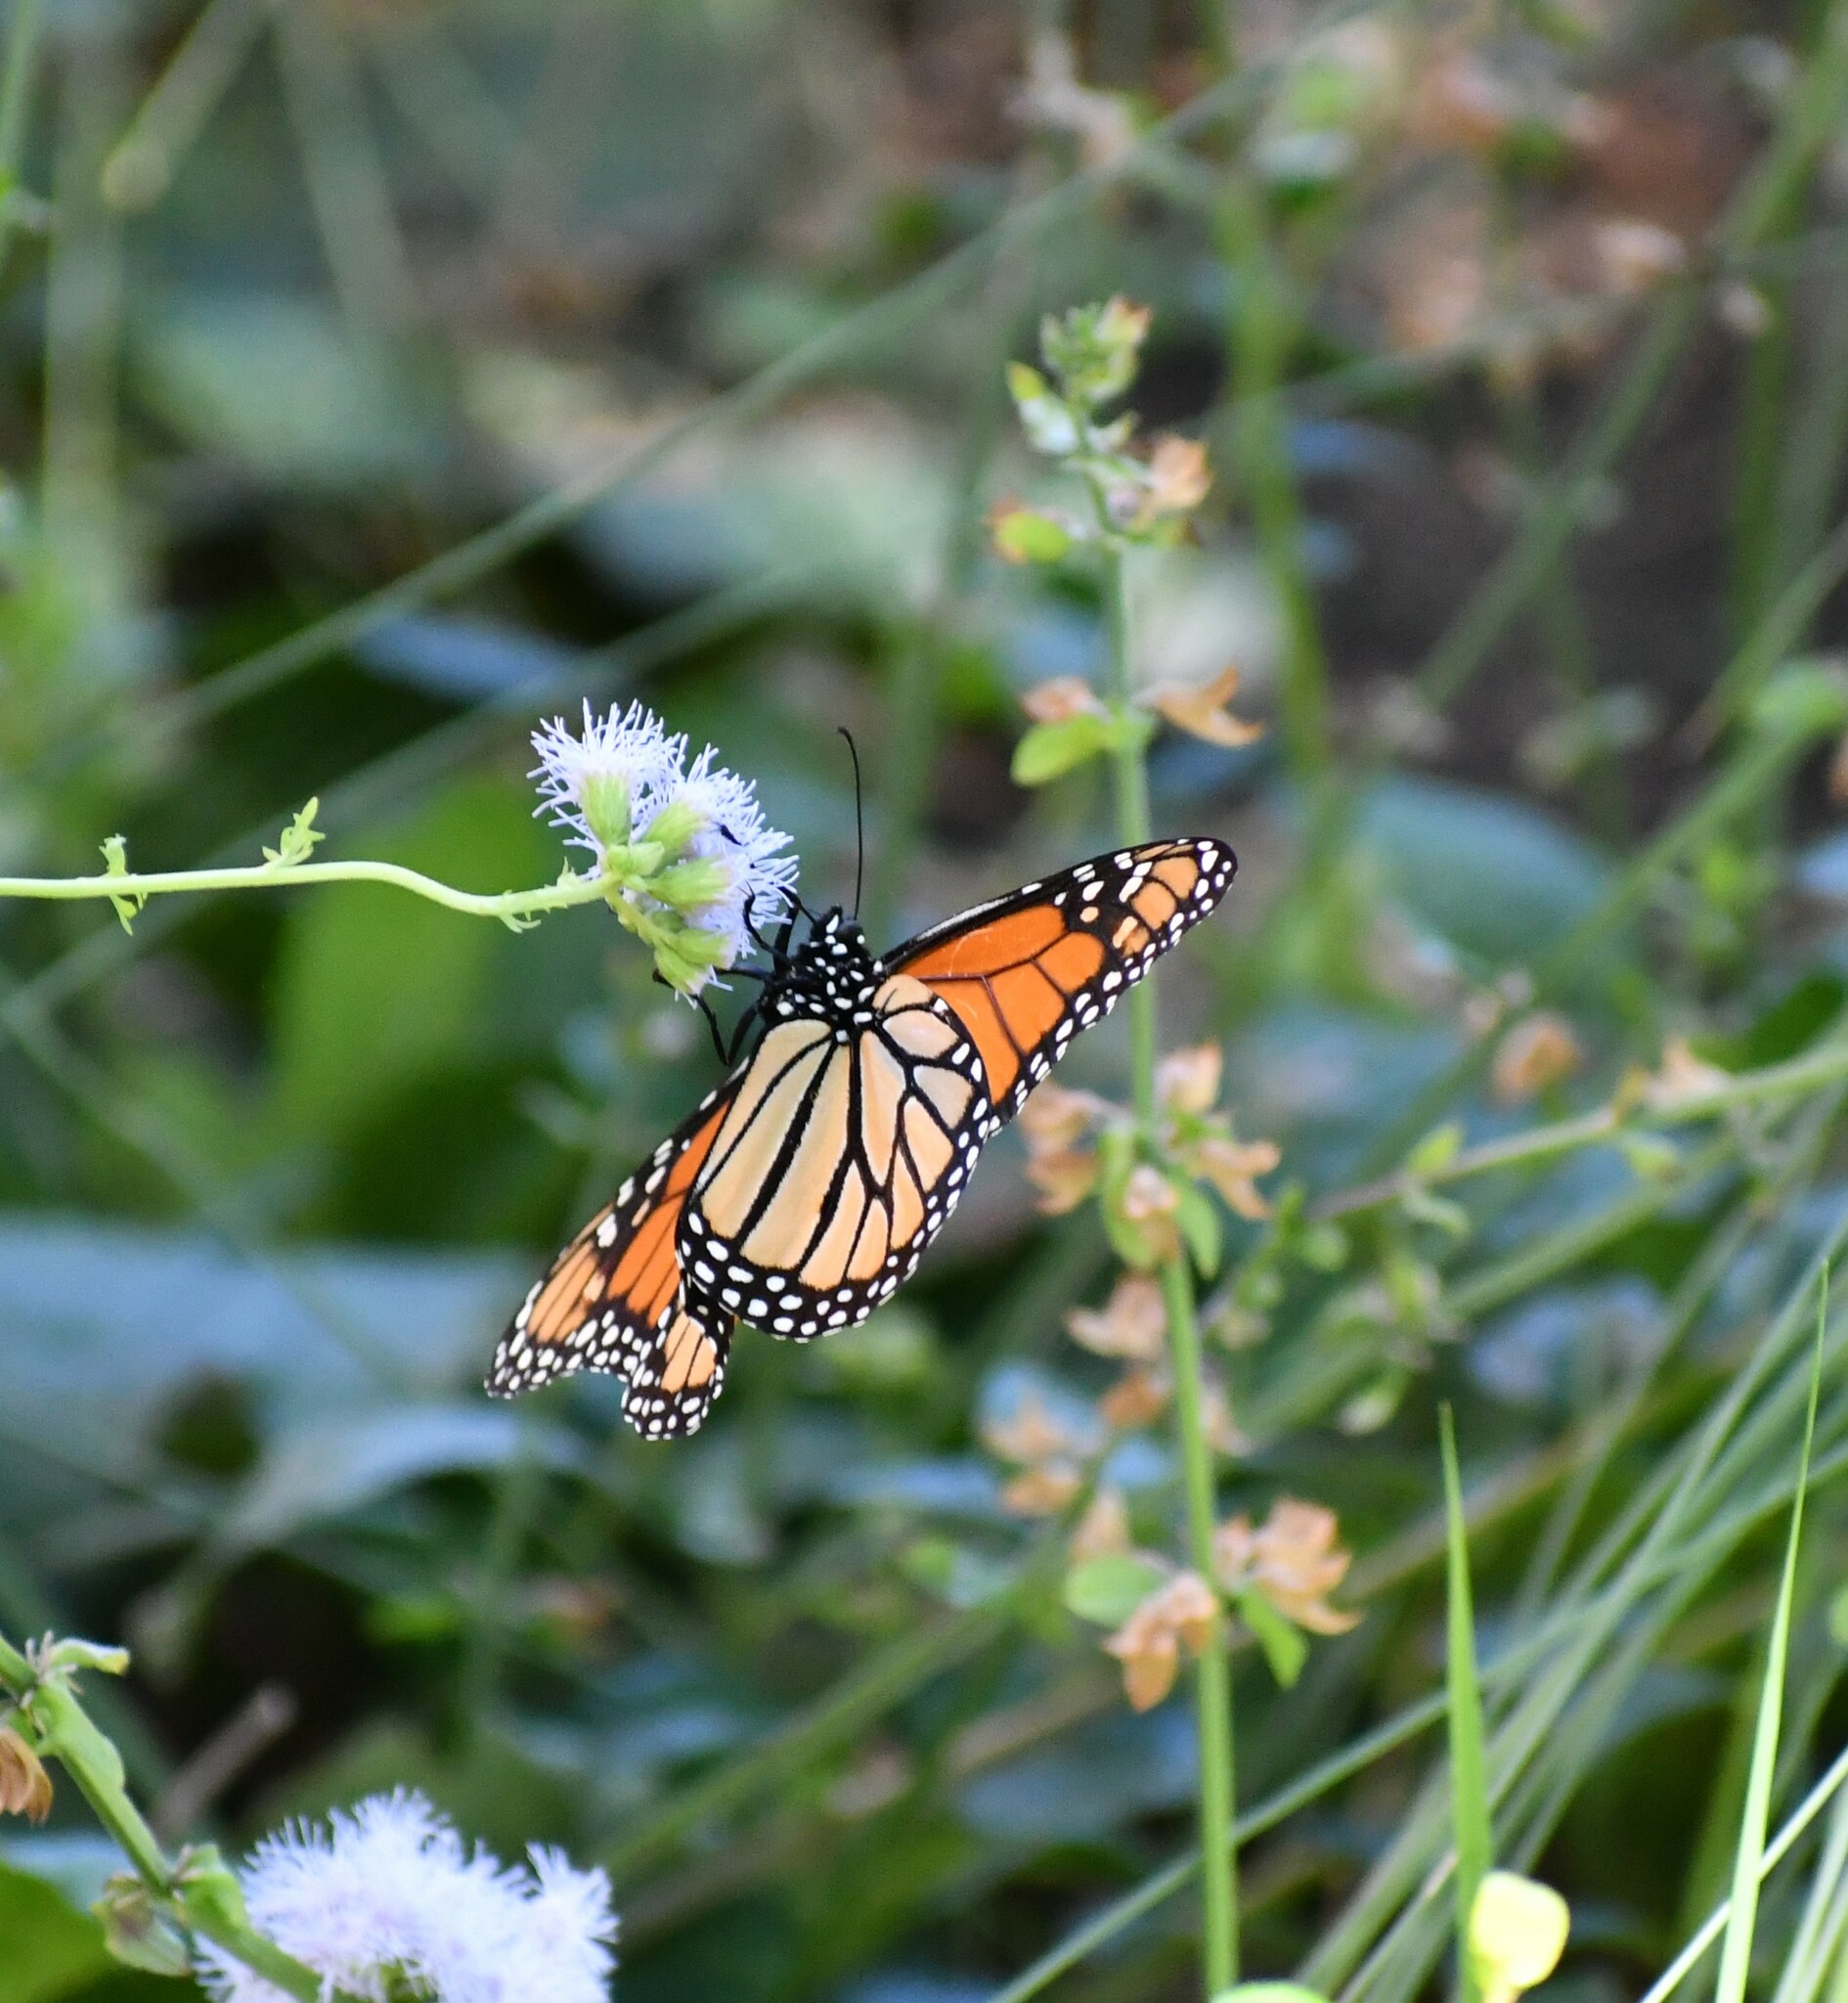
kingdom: Animalia
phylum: Arthropoda
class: Insecta
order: Lepidoptera
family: Nymphalidae
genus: Danaus
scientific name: Danaus plexippus
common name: Monarch
